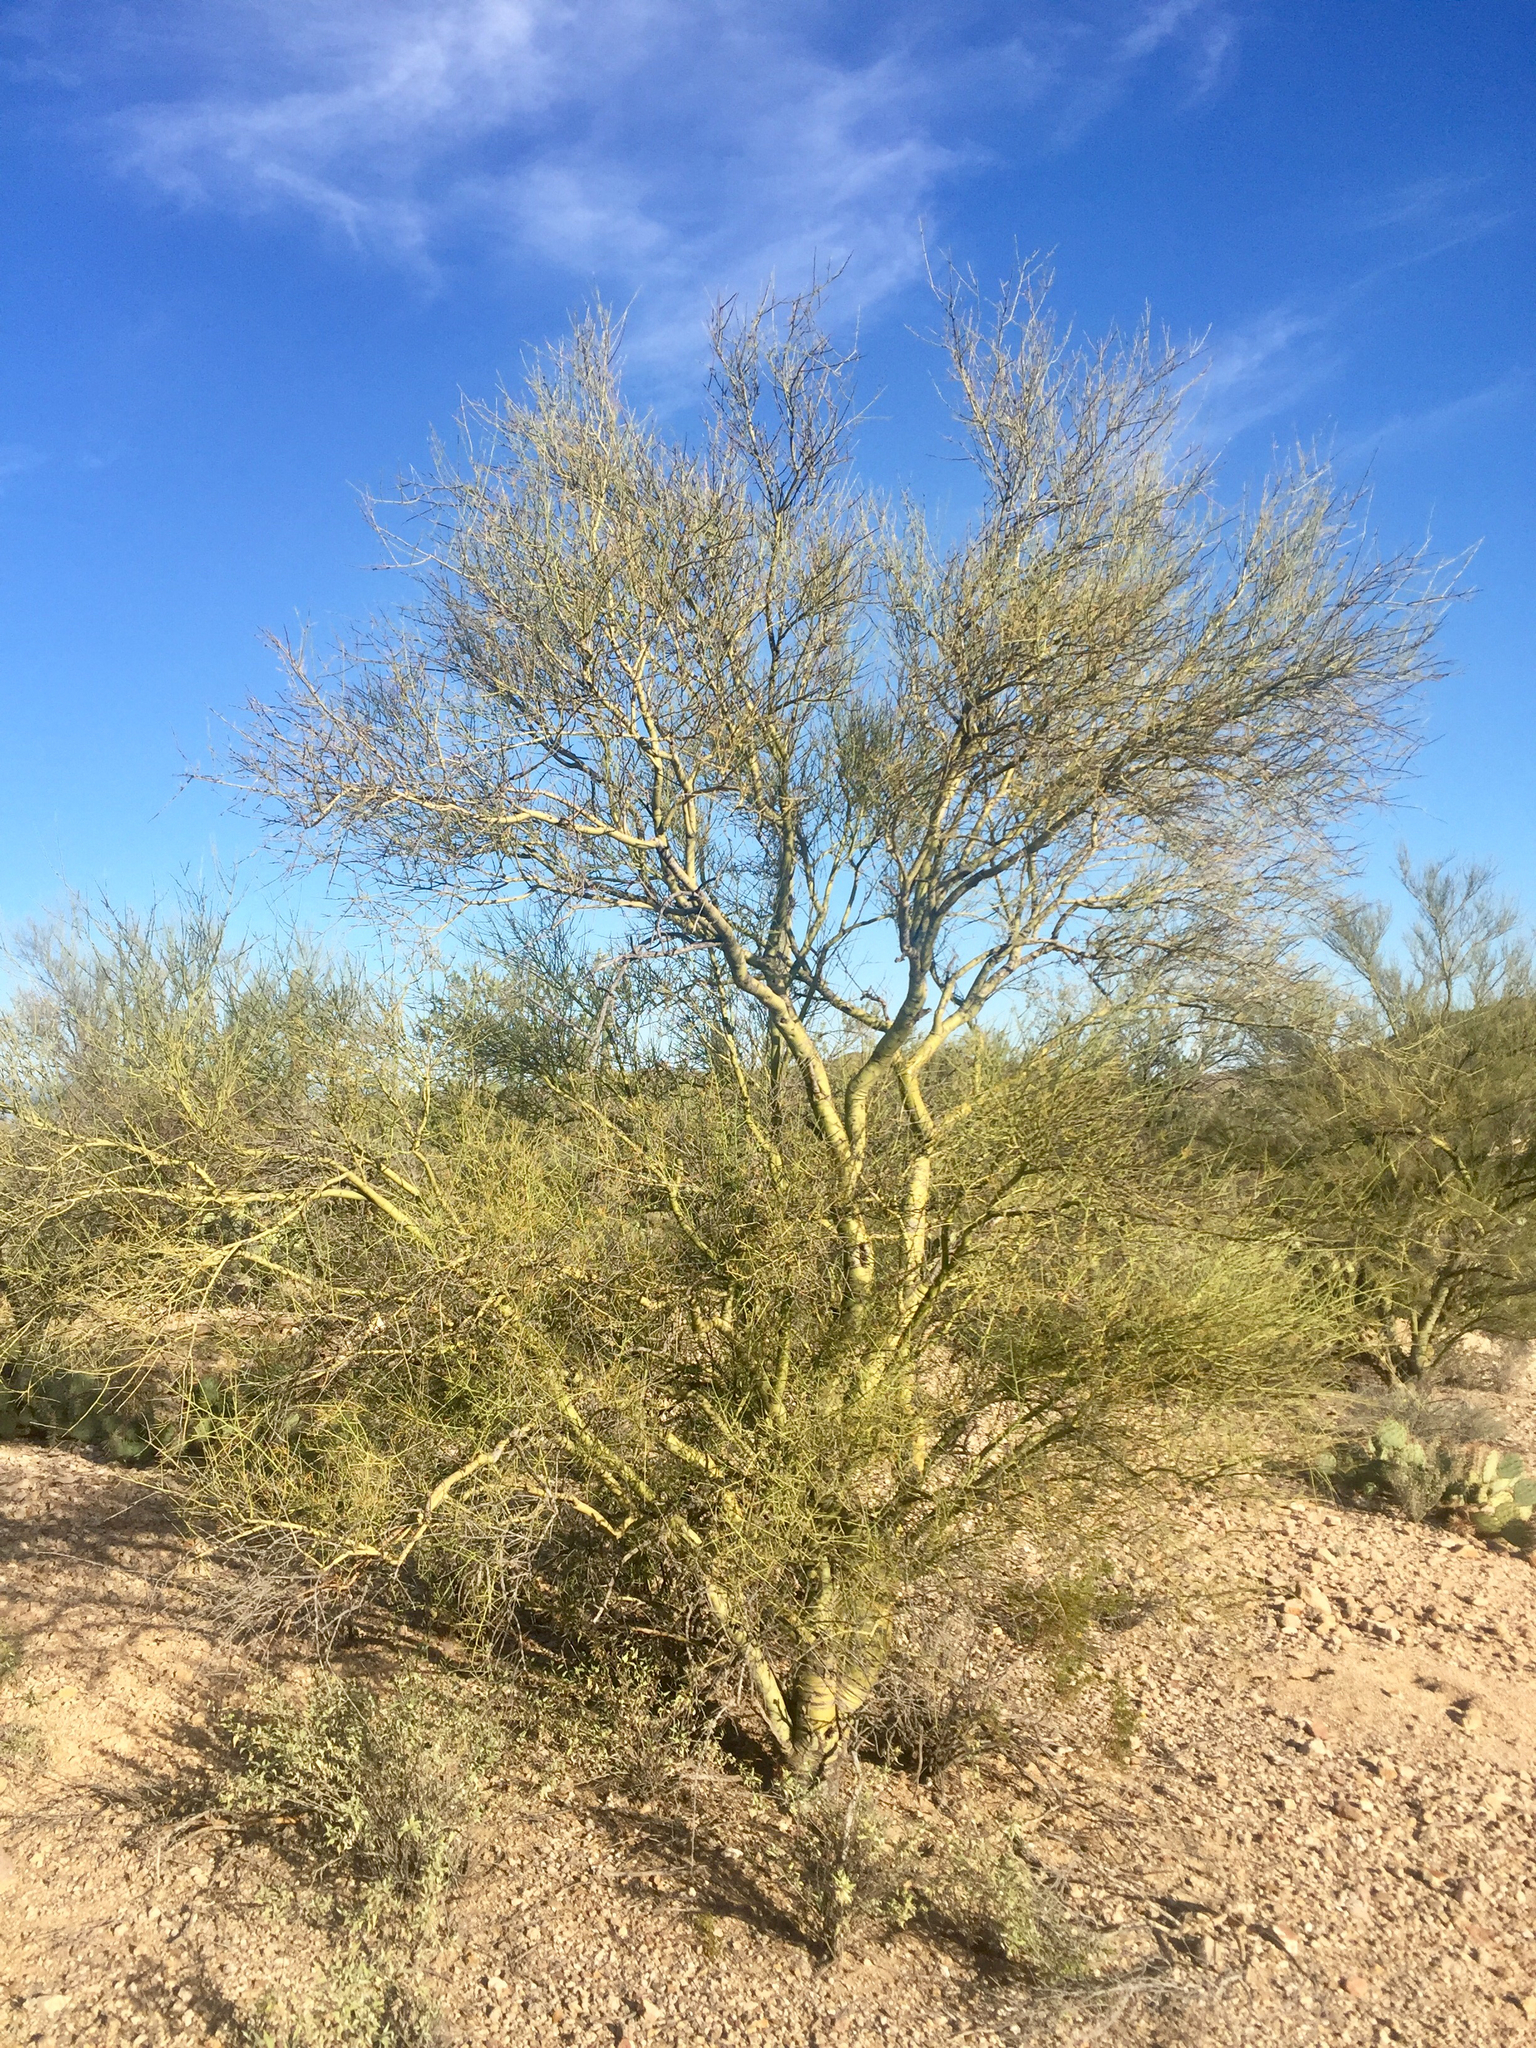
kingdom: Plantae
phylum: Tracheophyta
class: Magnoliopsida
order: Fabales
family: Fabaceae
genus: Parkinsonia
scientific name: Parkinsonia microphylla
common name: Yellow paloverde
